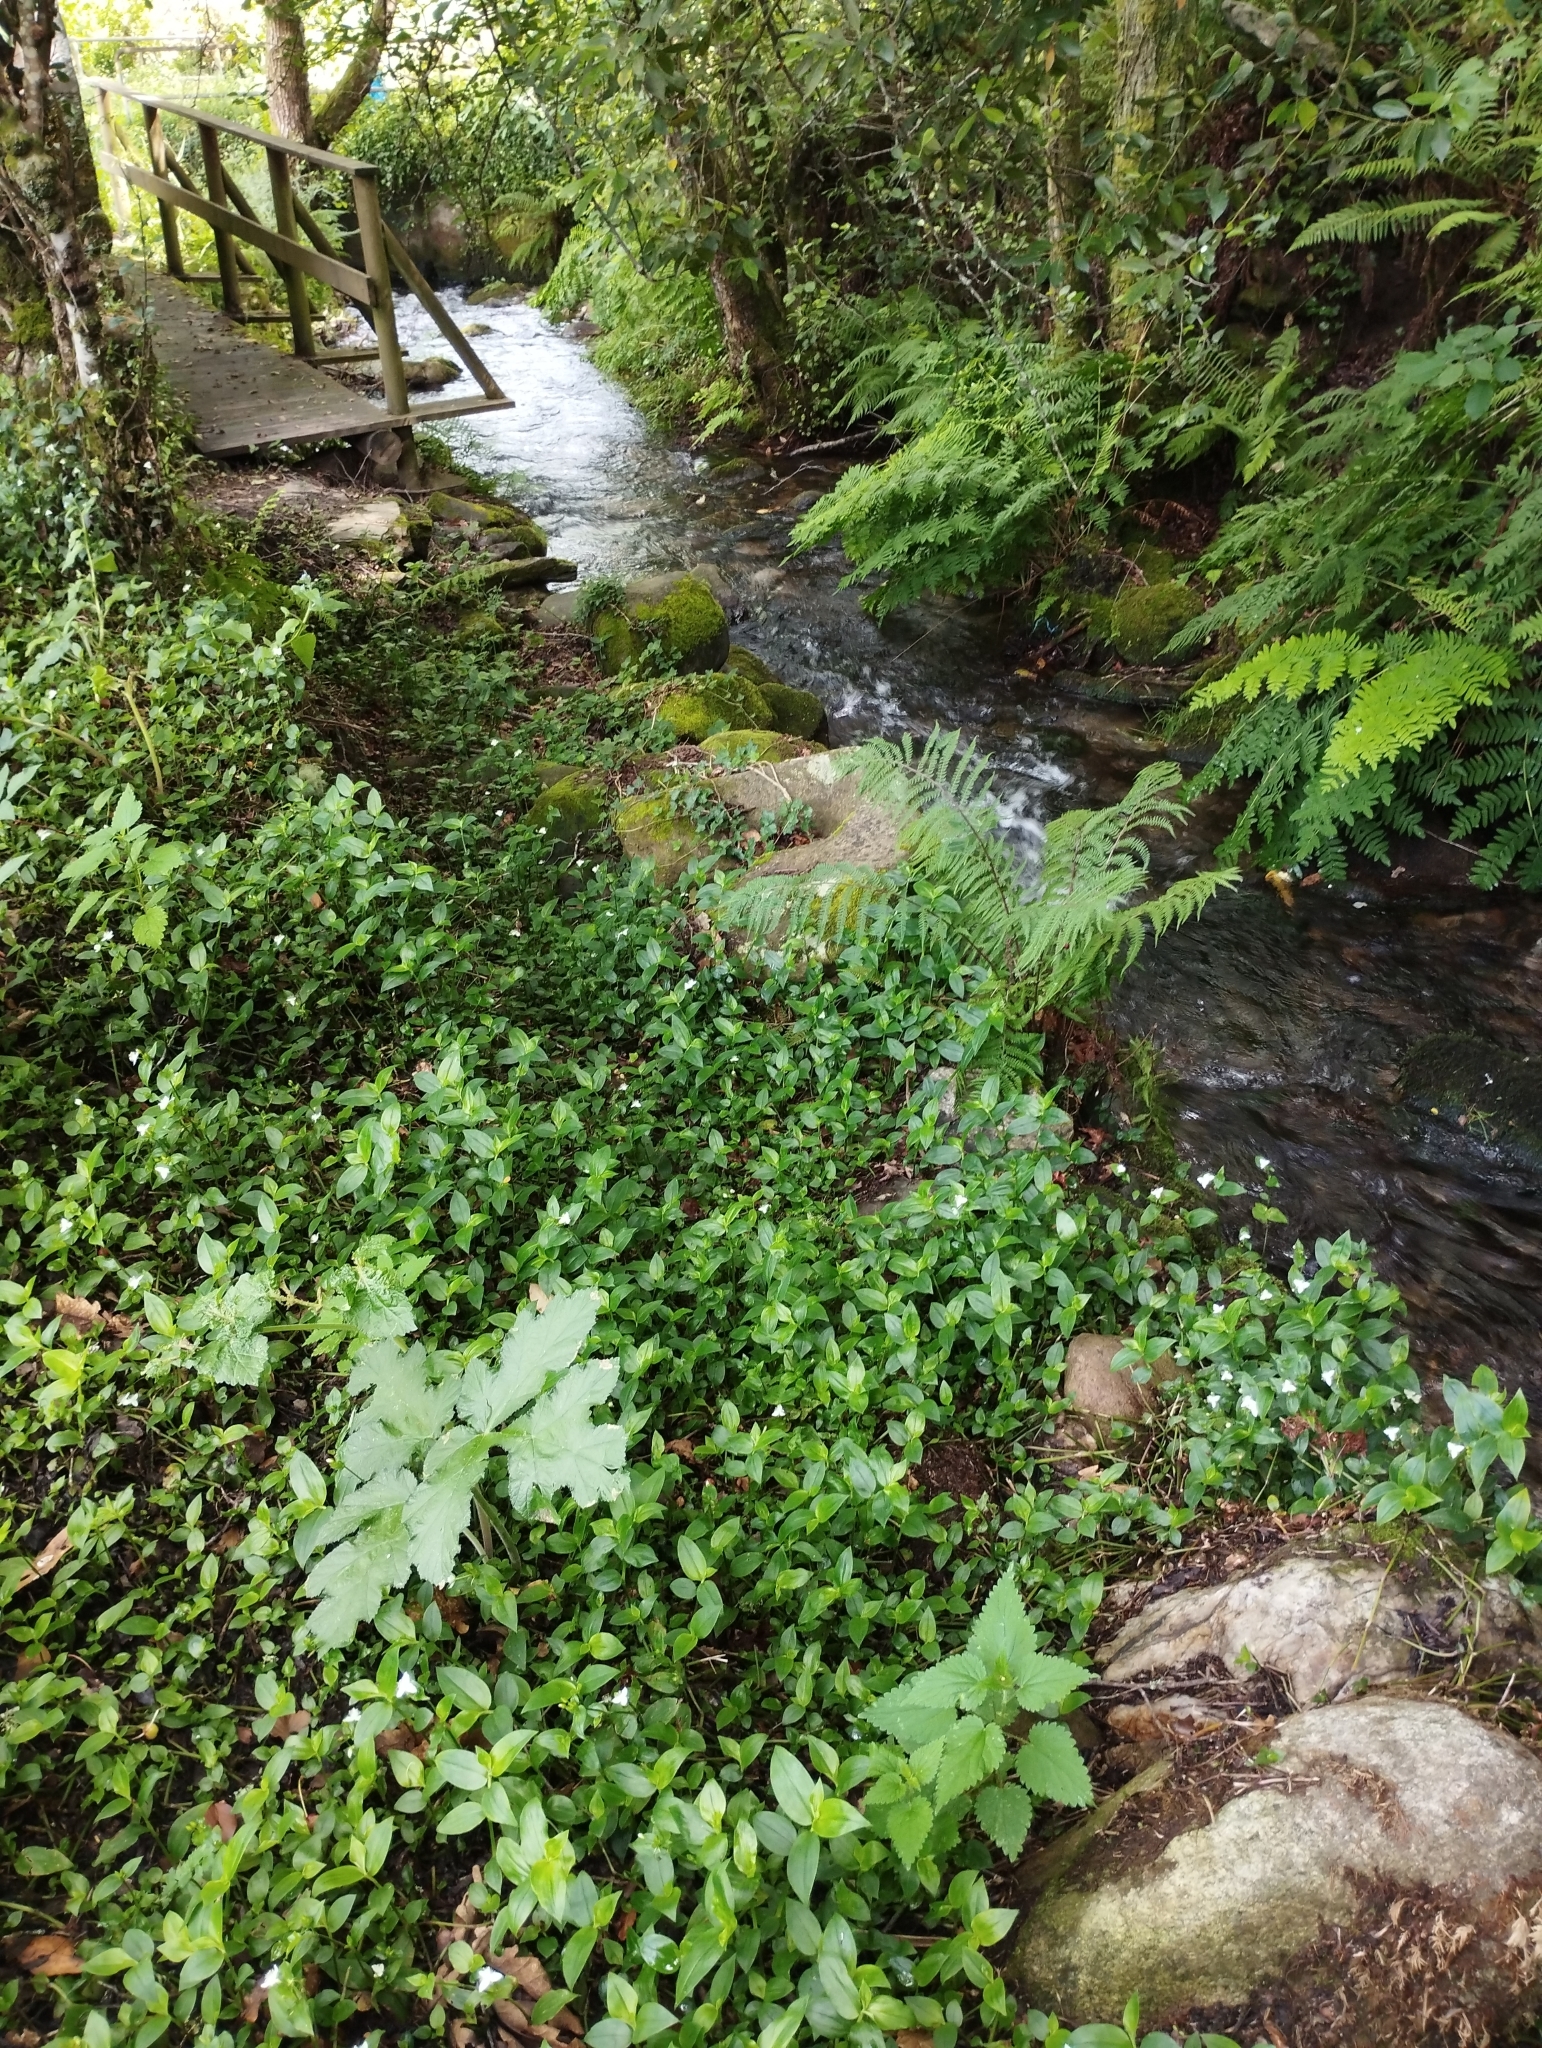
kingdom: Plantae
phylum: Tracheophyta
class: Liliopsida
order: Commelinales
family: Commelinaceae
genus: Tradescantia
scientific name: Tradescantia fluminensis
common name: Wandering-jew
